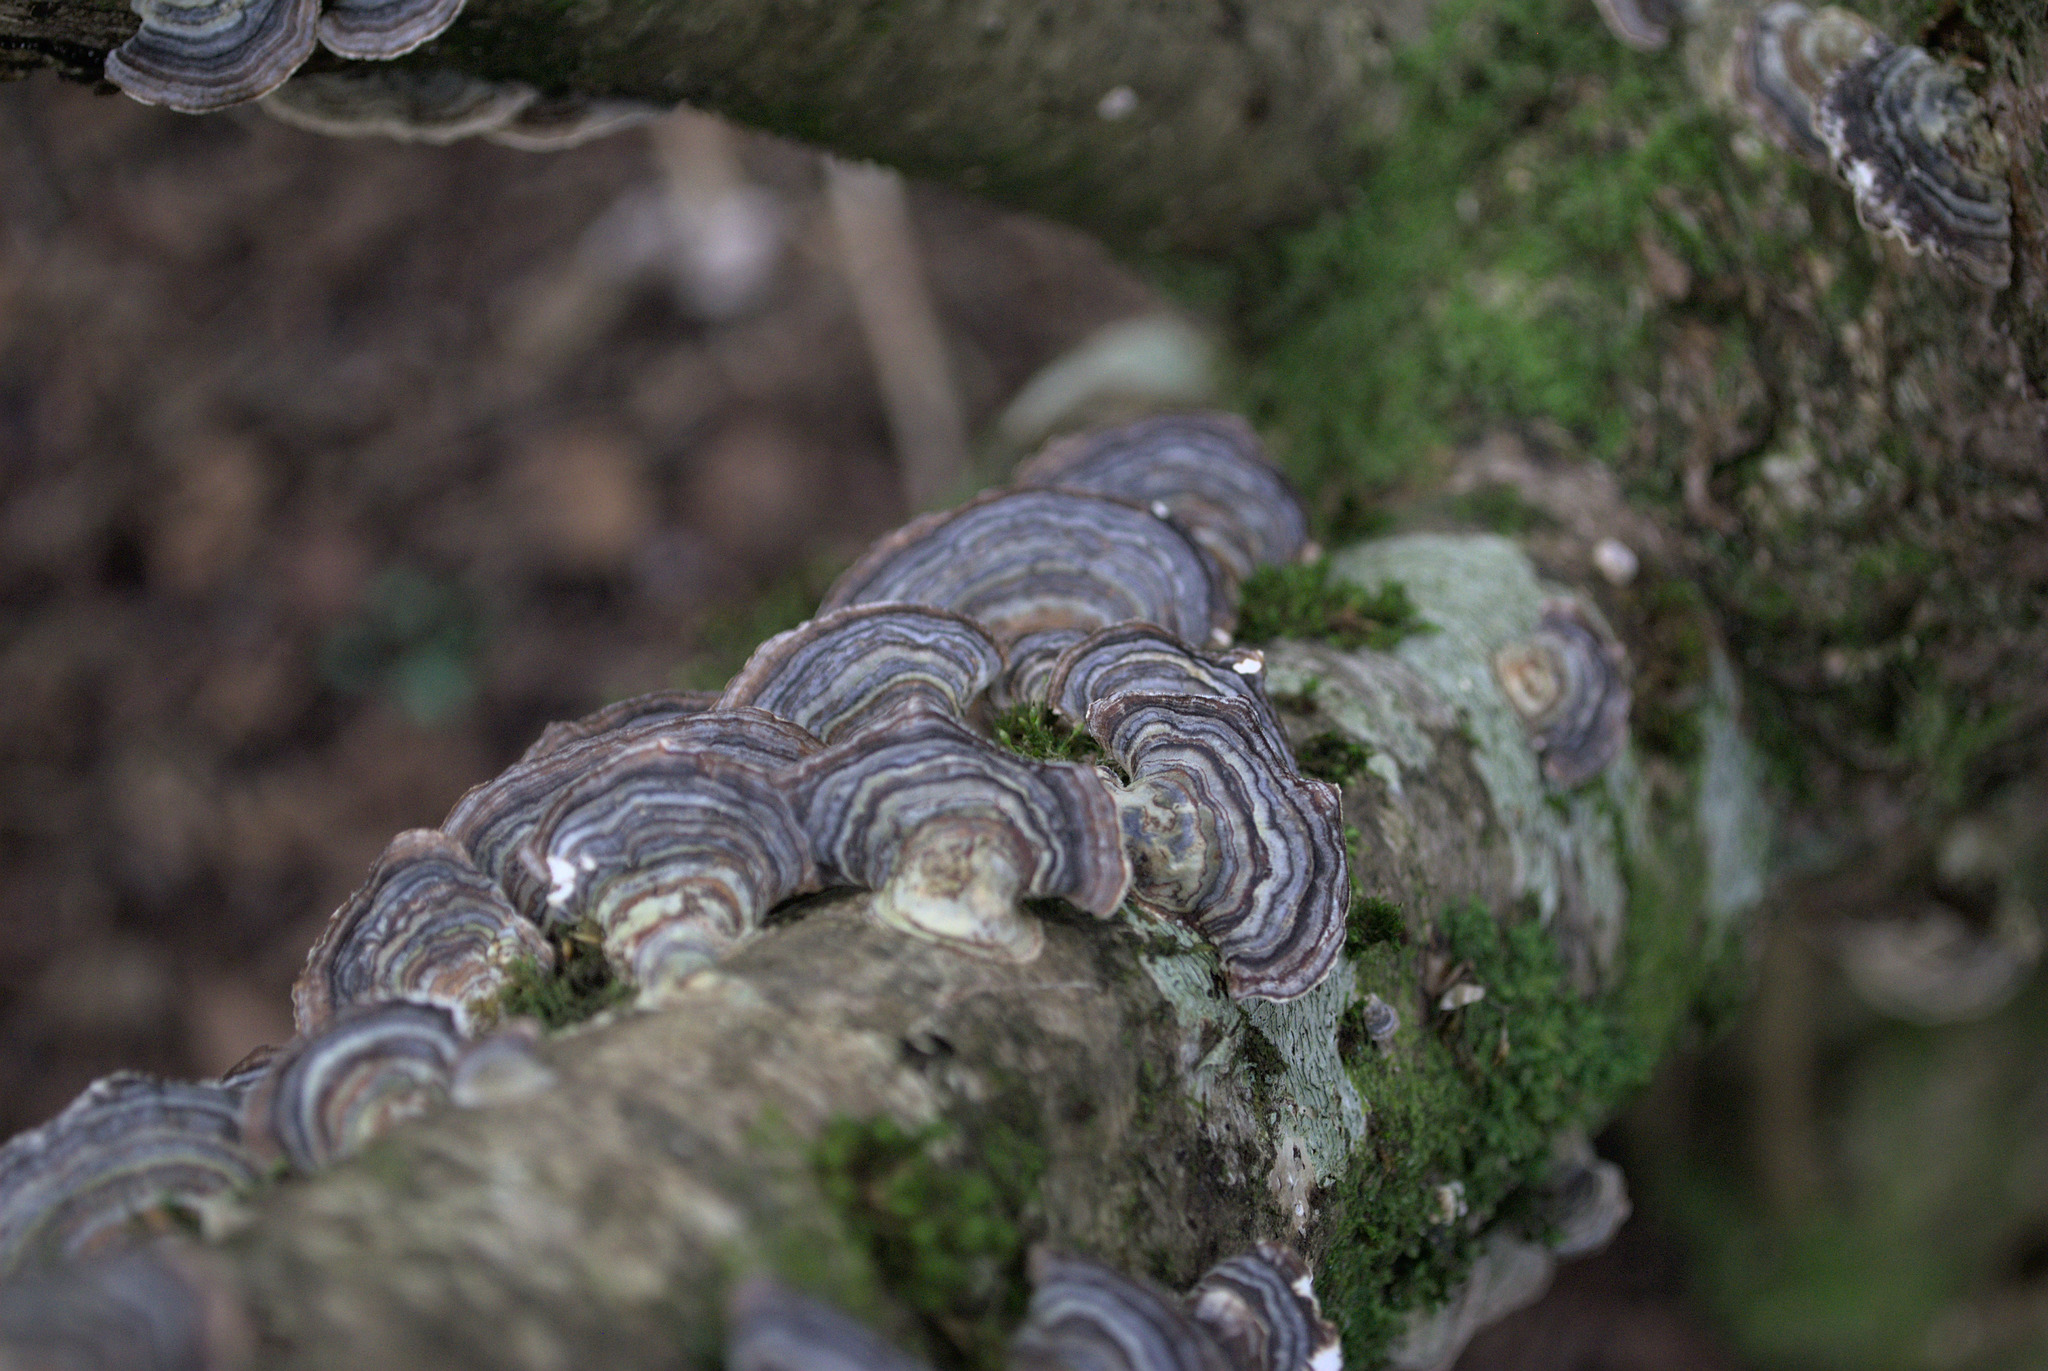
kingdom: Fungi
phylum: Basidiomycota
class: Agaricomycetes
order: Polyporales
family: Polyporaceae
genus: Trametes
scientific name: Trametes versicolor
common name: Turkeytail
